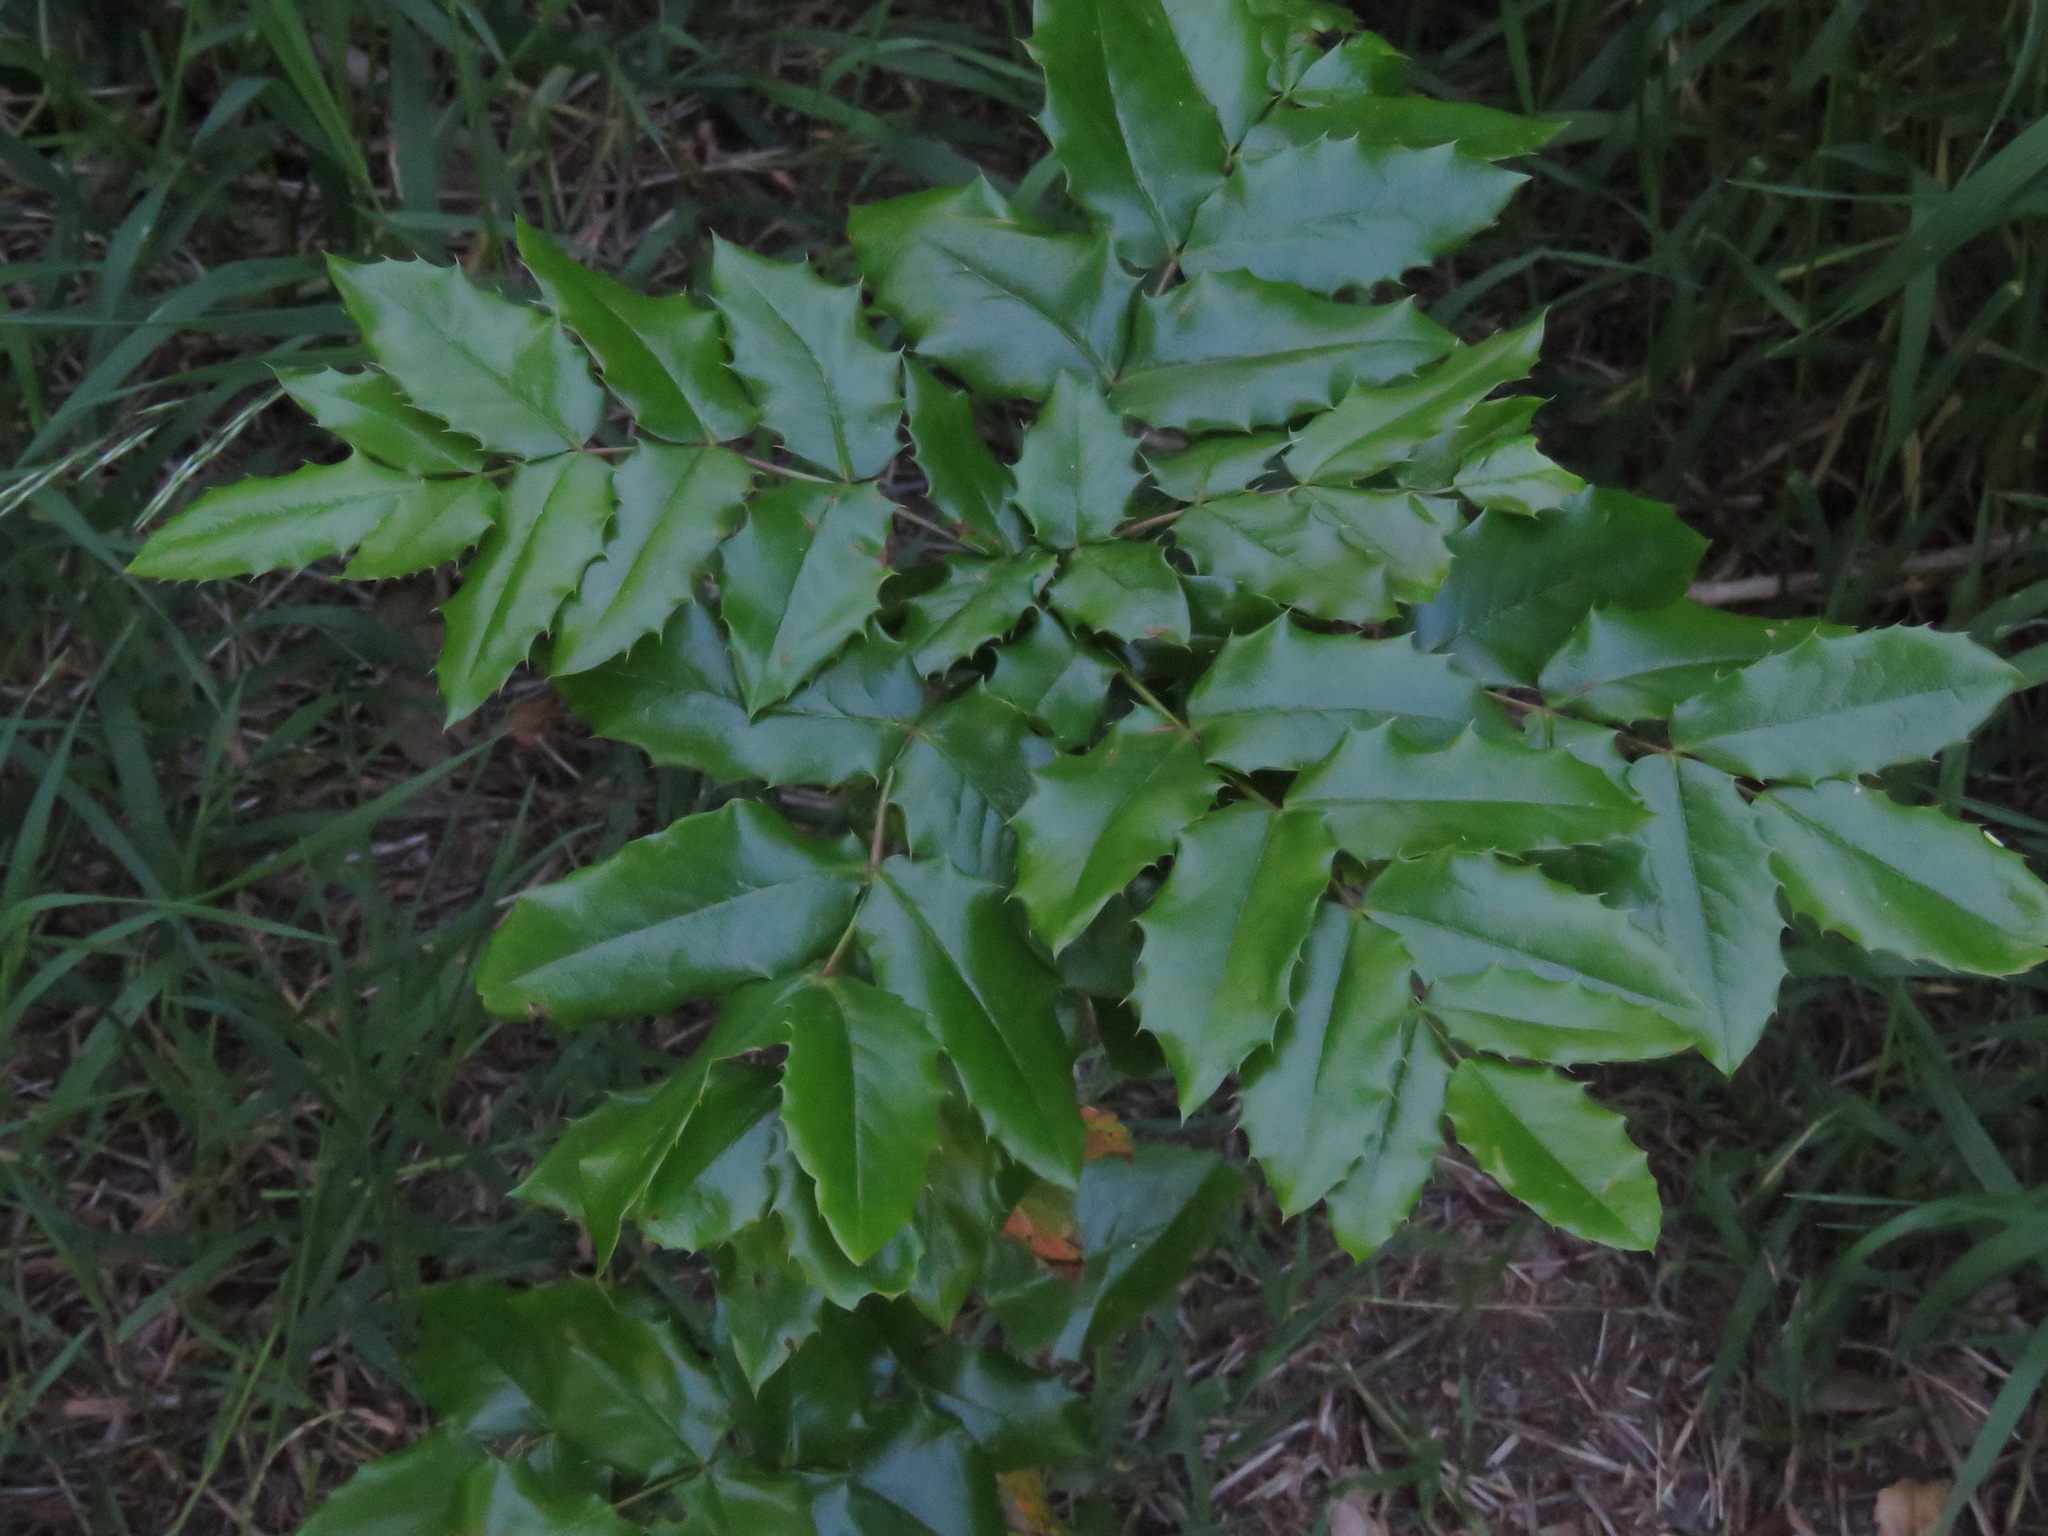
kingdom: Plantae
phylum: Tracheophyta
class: Magnoliopsida
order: Ranunculales
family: Berberidaceae
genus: Mahonia
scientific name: Mahonia aquifolium
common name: Oregon-grape
